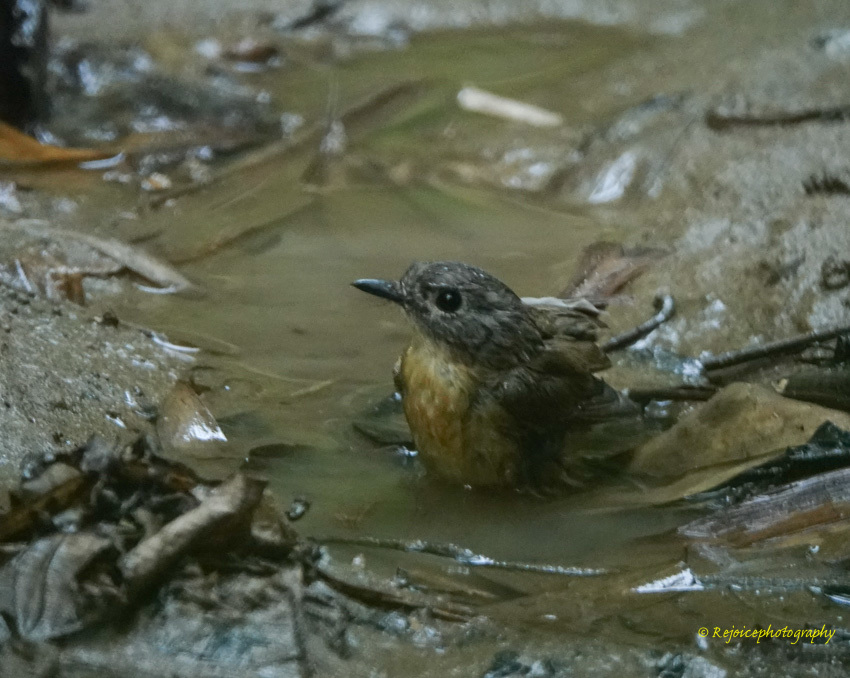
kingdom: Animalia
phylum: Chordata
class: Aves
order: Passeriformes
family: Muscicapidae
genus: Cyornis
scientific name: Cyornis poliogenys
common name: Pale-chinned blue flycatcher
